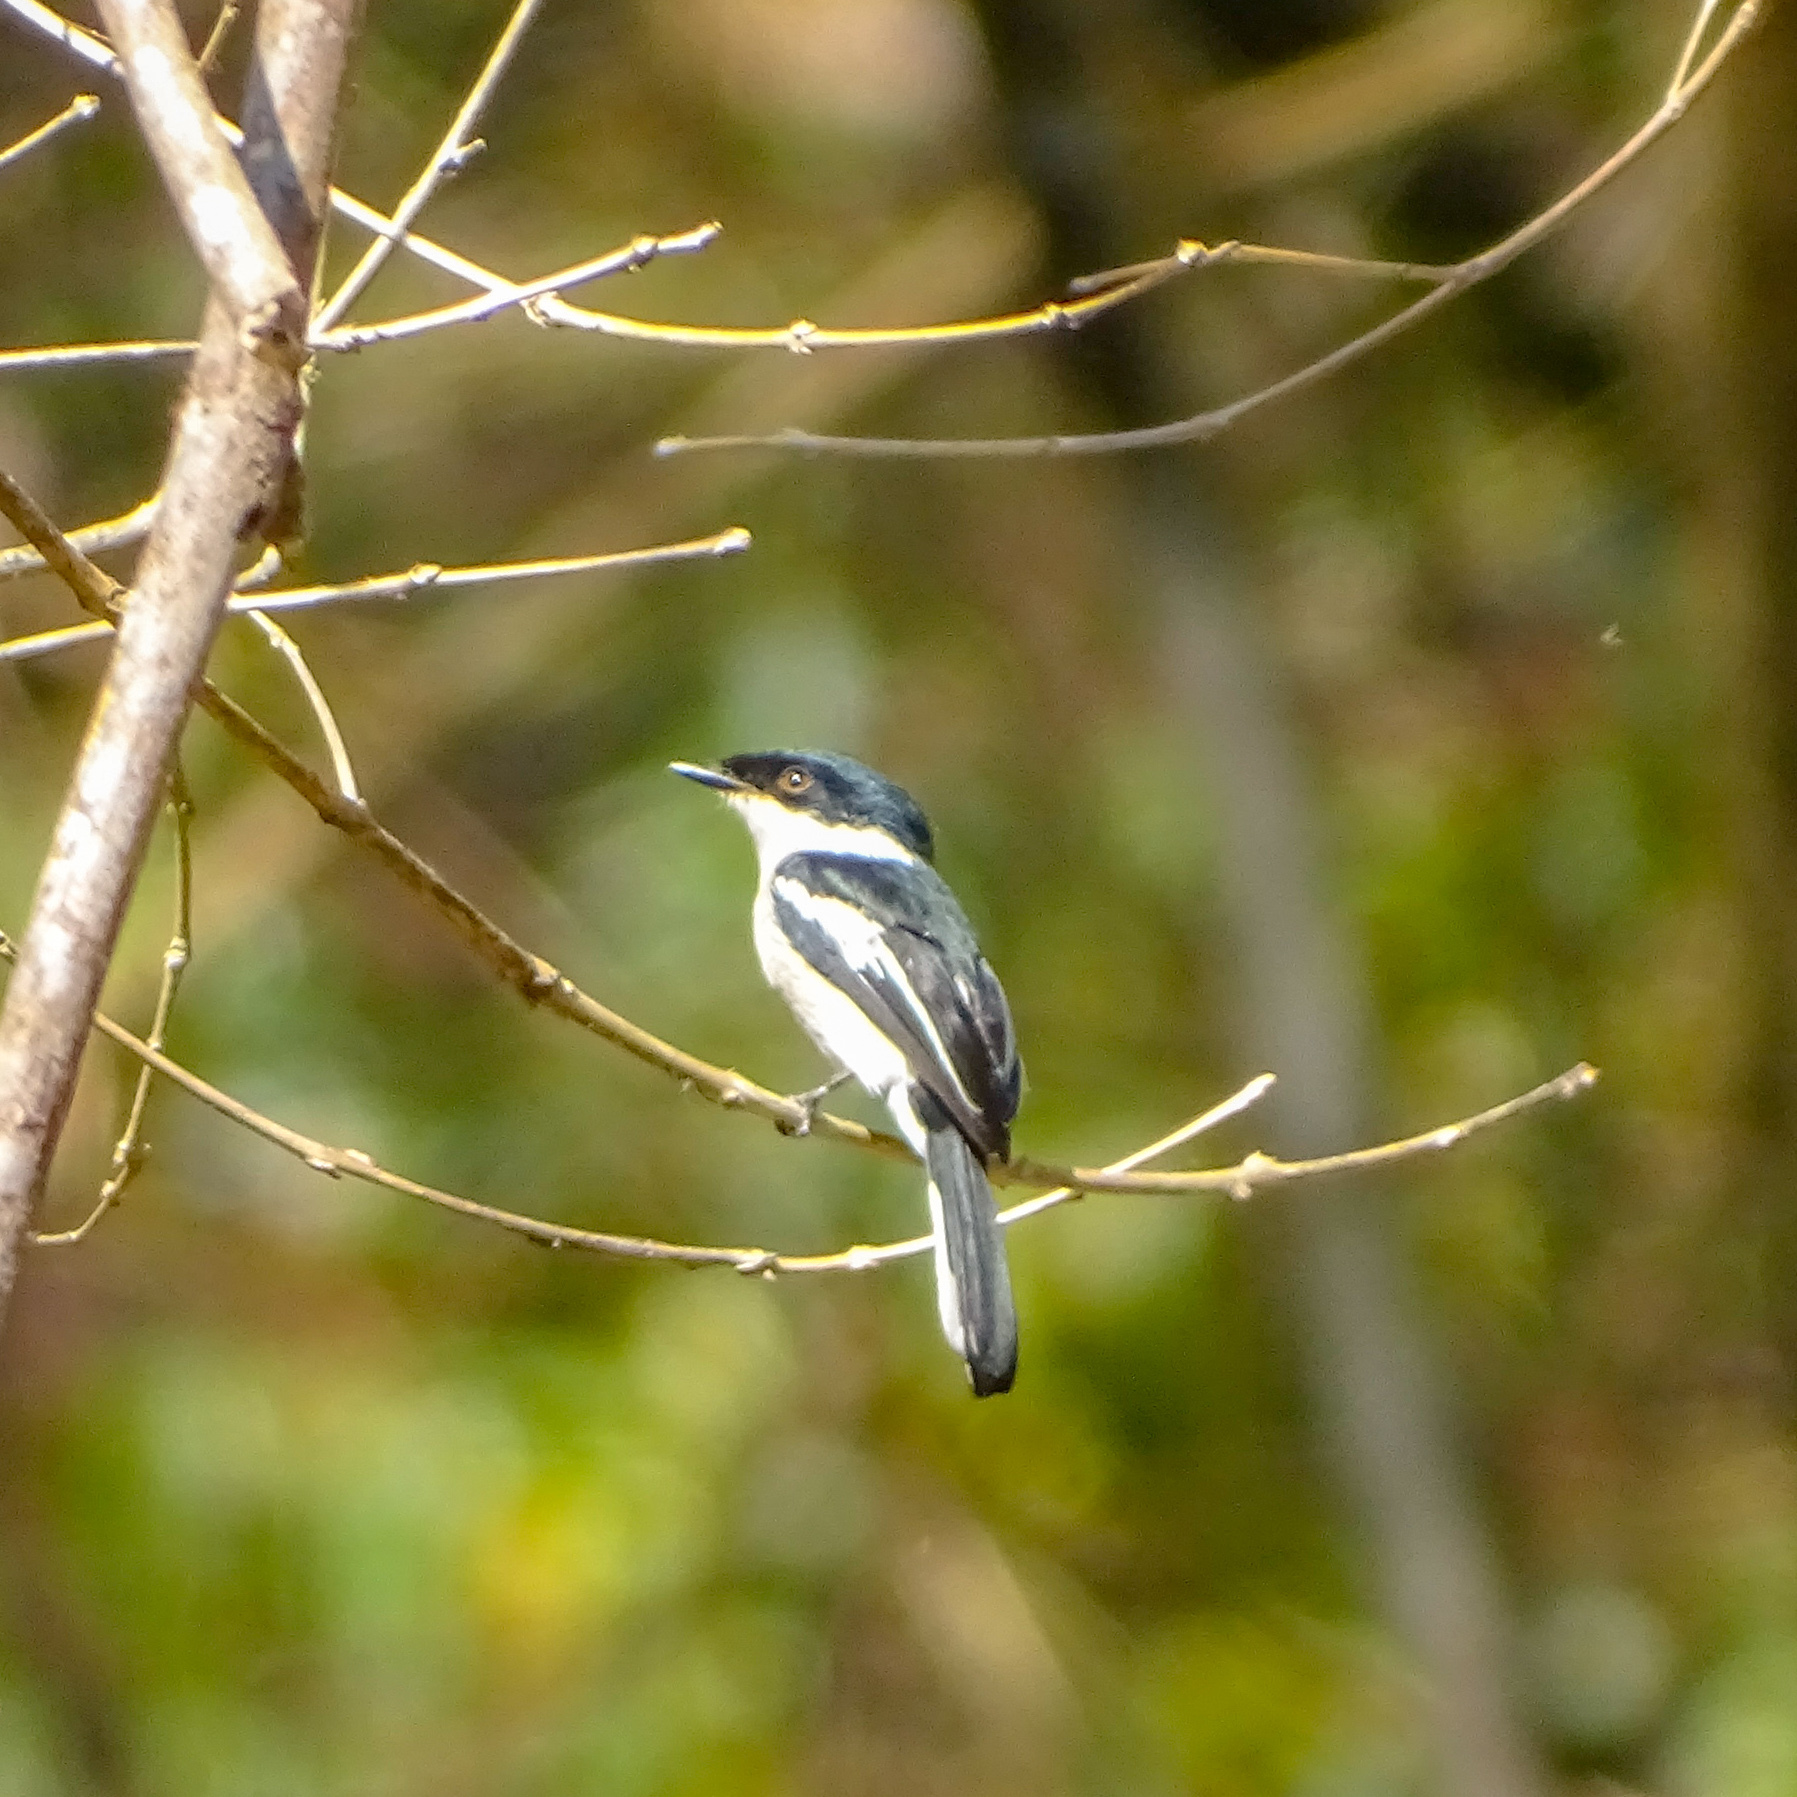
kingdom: Animalia
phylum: Chordata
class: Aves
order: Passeriformes
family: Tephrodornithidae
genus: Hemipus
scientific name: Hemipus picatus
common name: Bar-winged flycatcher-shrike
